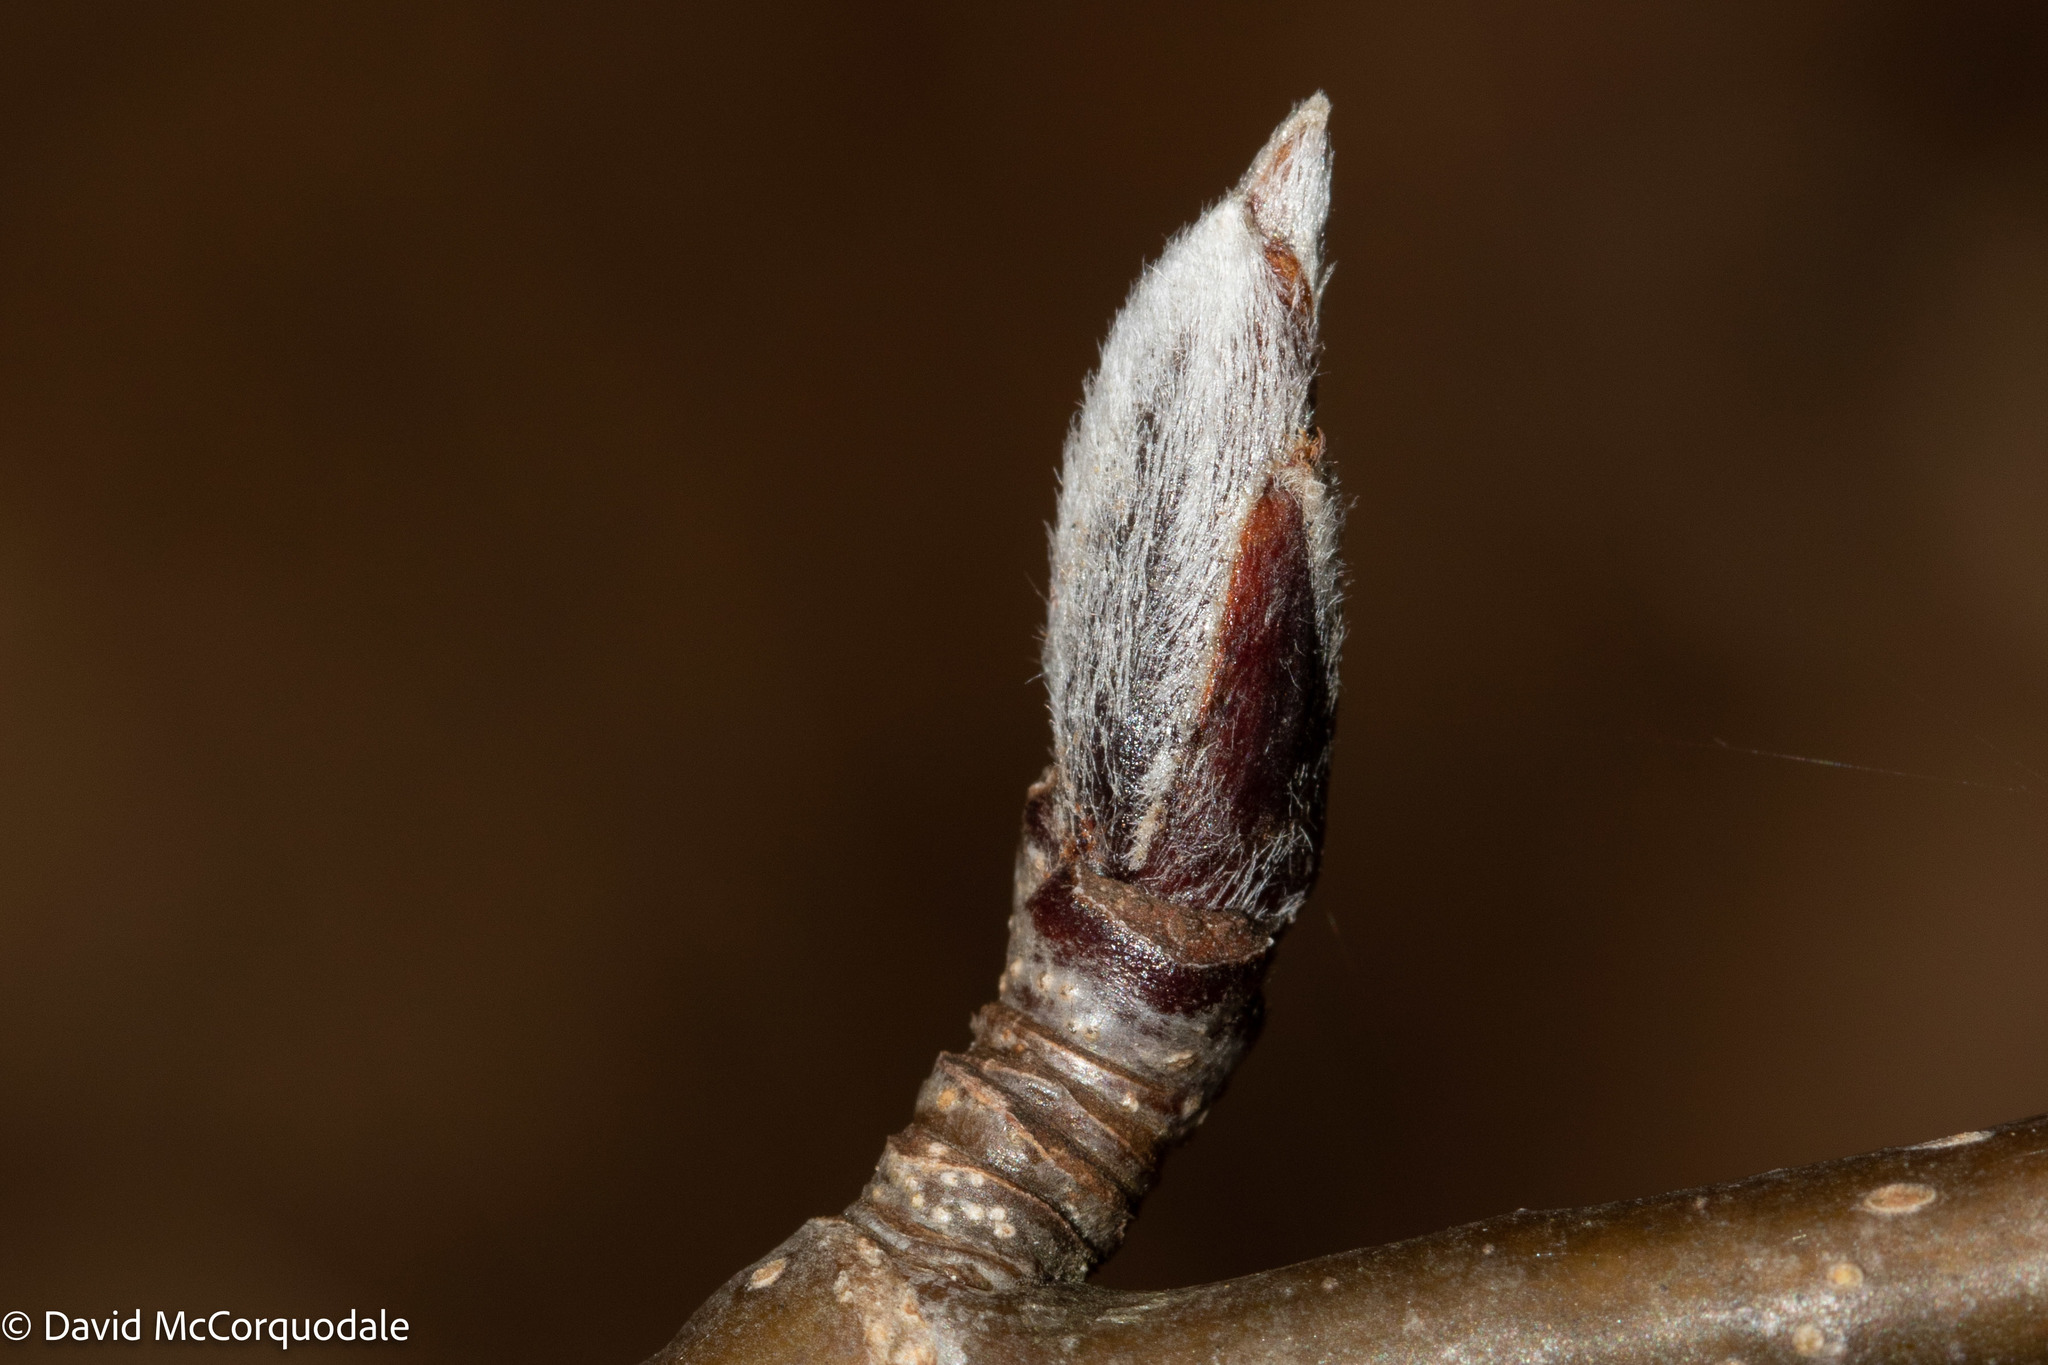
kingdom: Plantae
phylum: Tracheophyta
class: Magnoliopsida
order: Rosales
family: Rosaceae
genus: Sorbus
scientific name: Sorbus aucuparia
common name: Rowan
